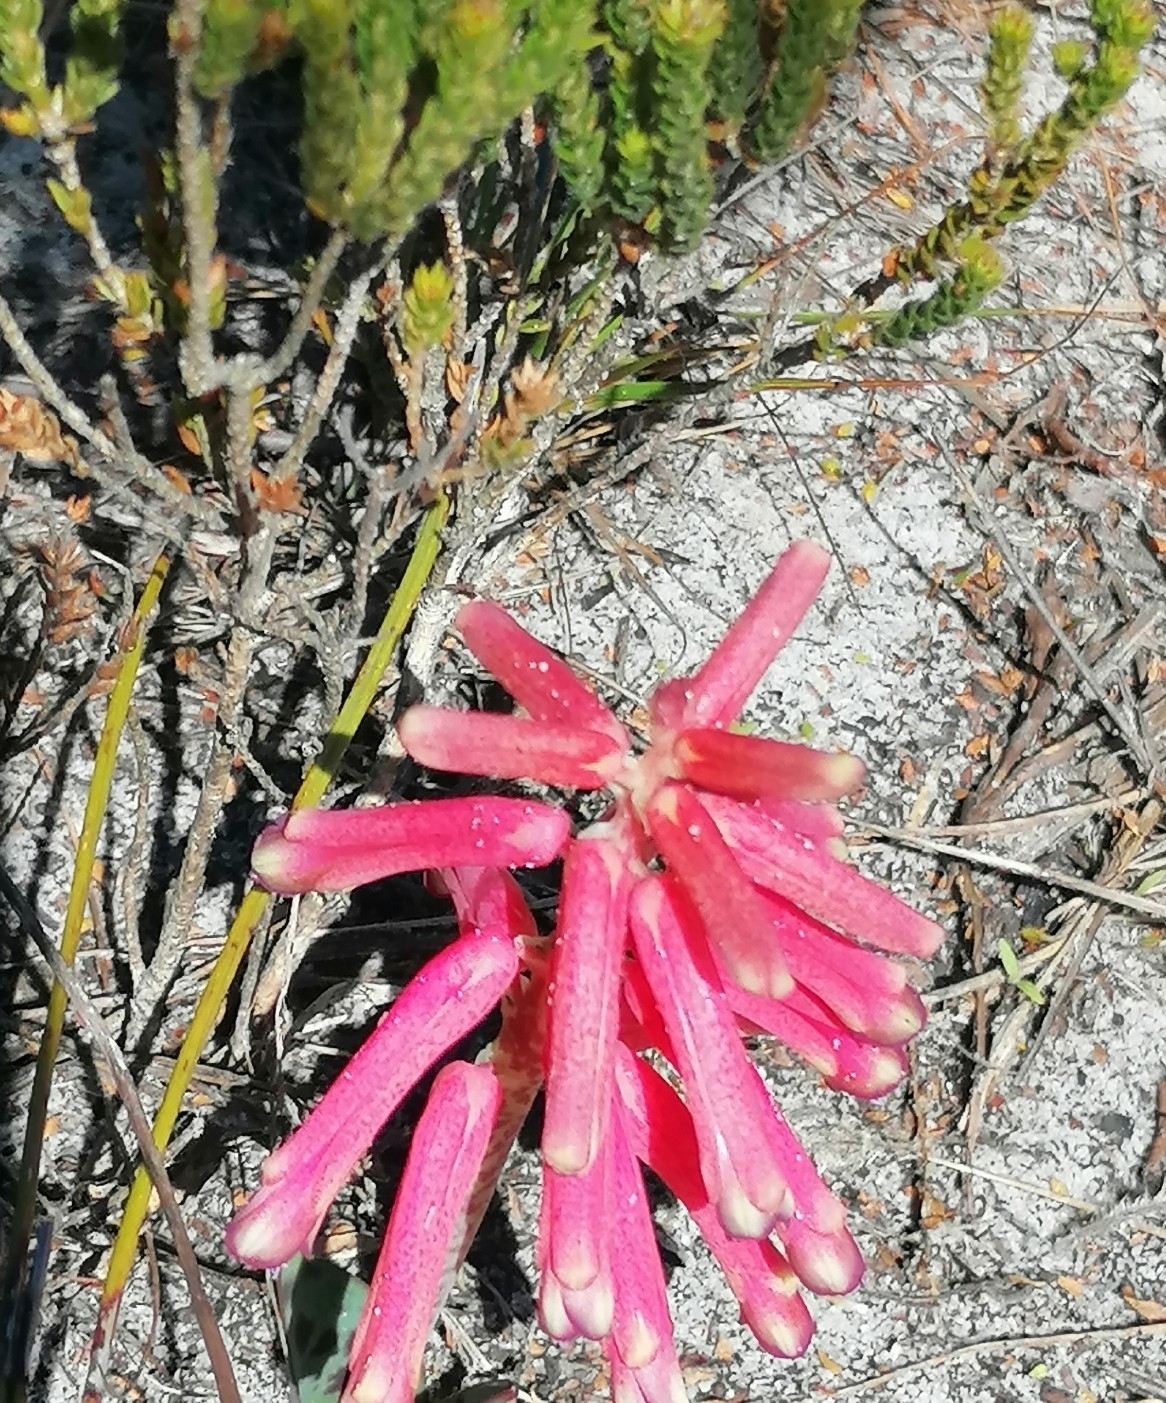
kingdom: Plantae
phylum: Tracheophyta
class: Liliopsida
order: Asparagales
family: Asparagaceae
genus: Lachenalia
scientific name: Lachenalia punctata
